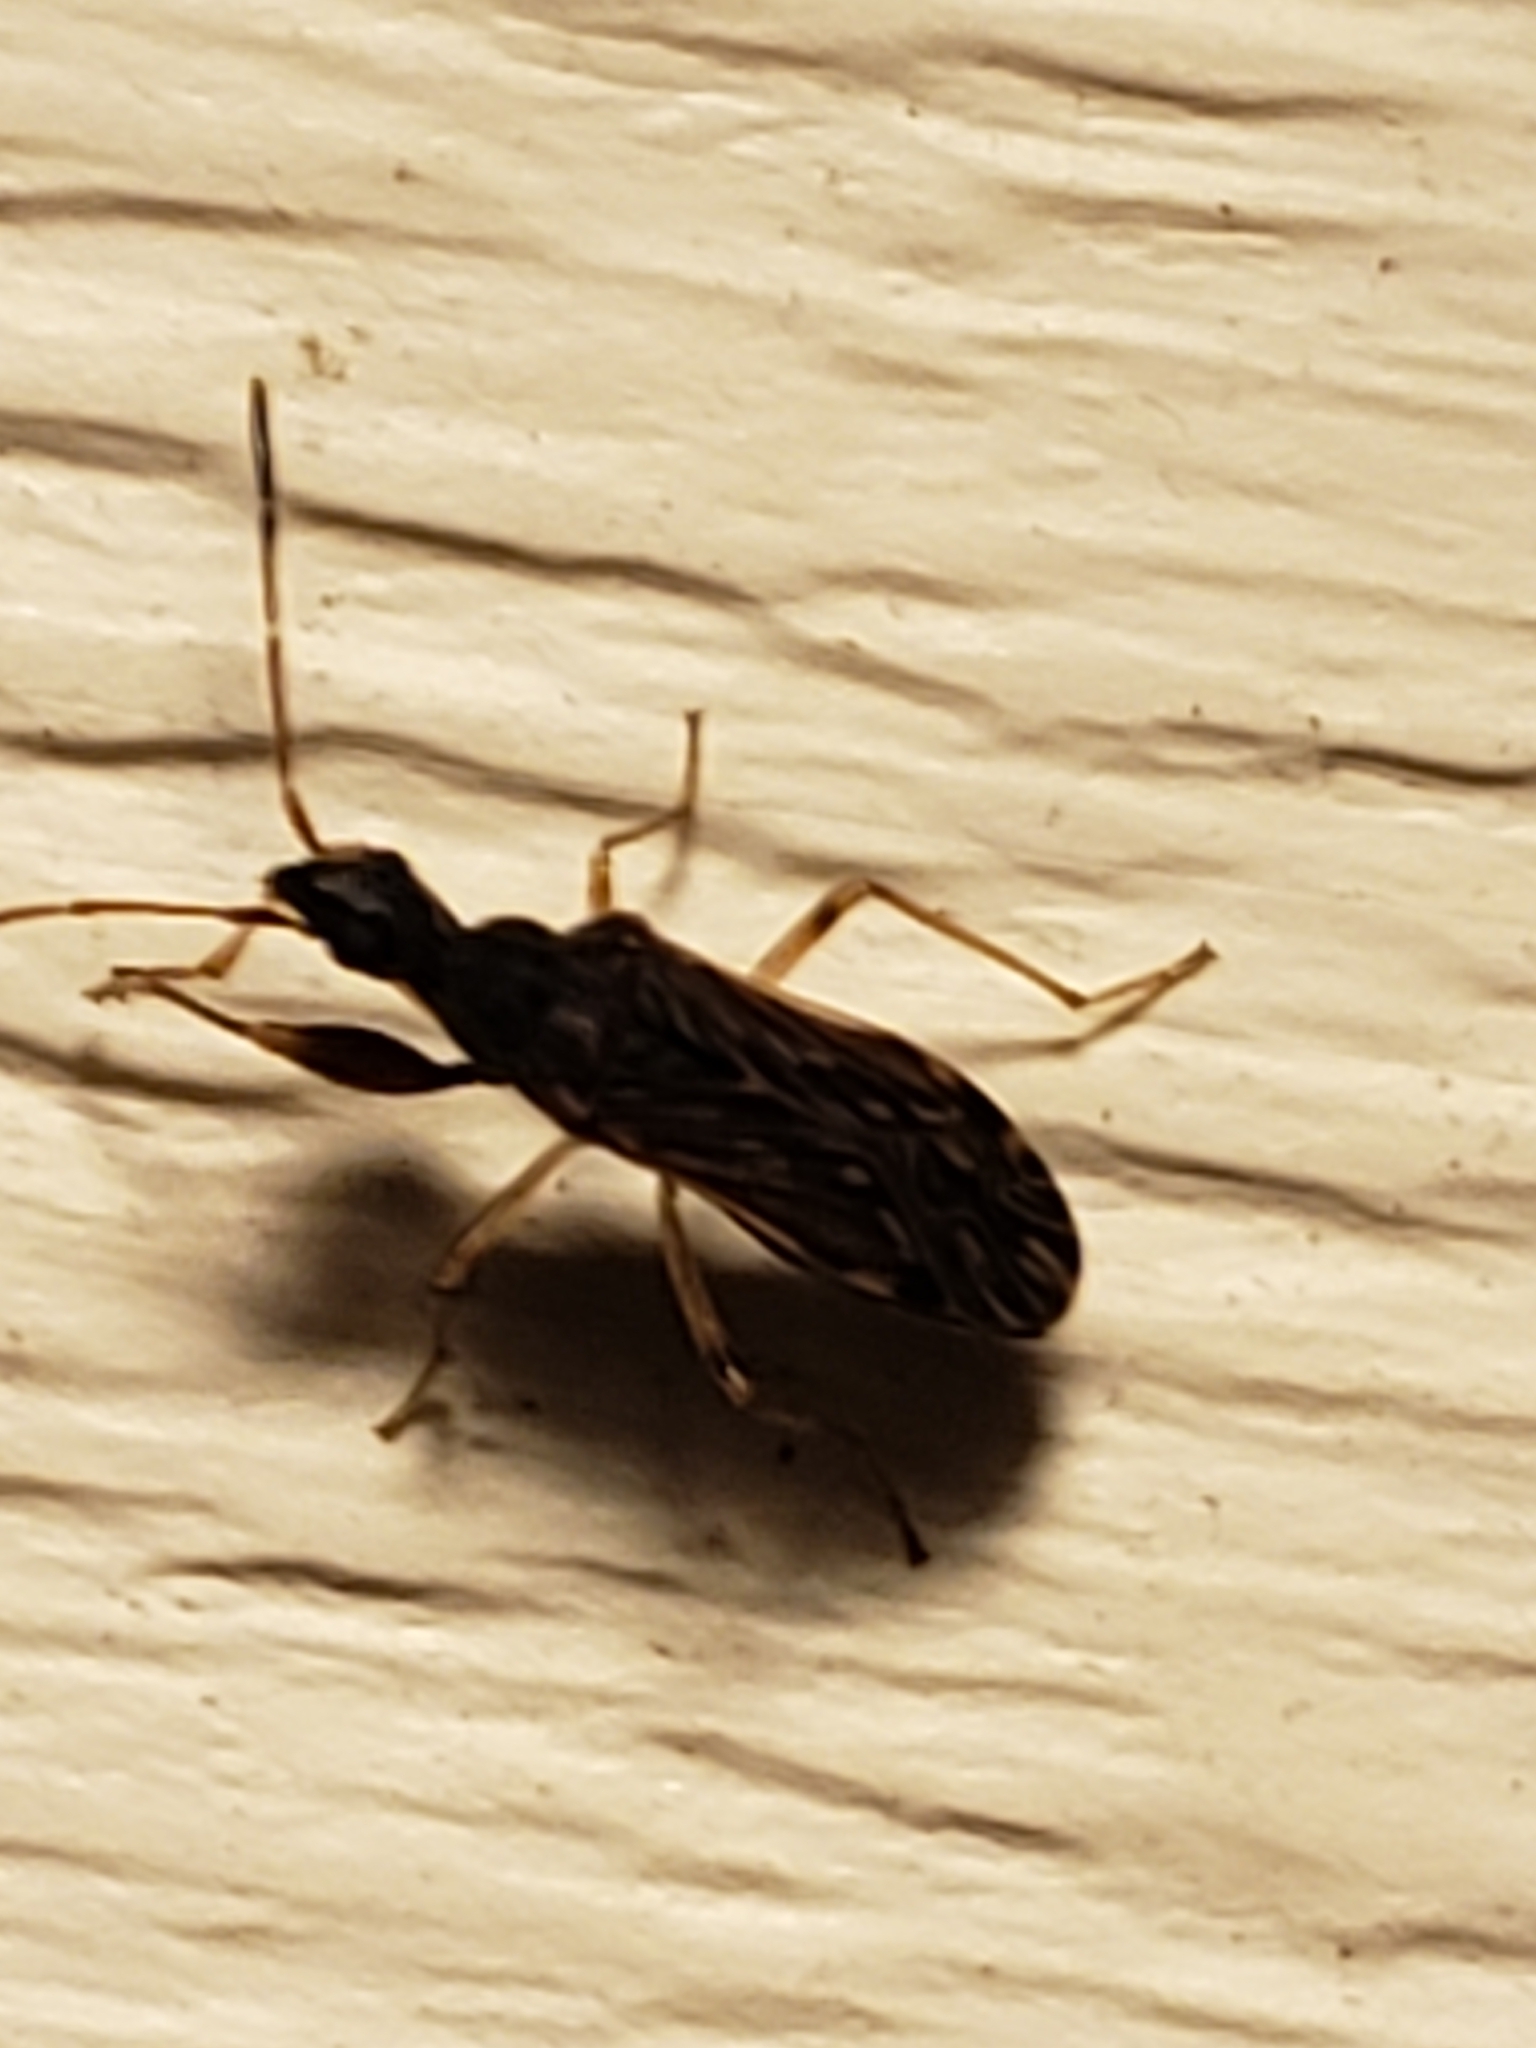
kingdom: Animalia
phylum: Arthropoda
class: Insecta
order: Hemiptera
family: Rhyparochromidae
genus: Heraeus
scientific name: Heraeus plebejus
